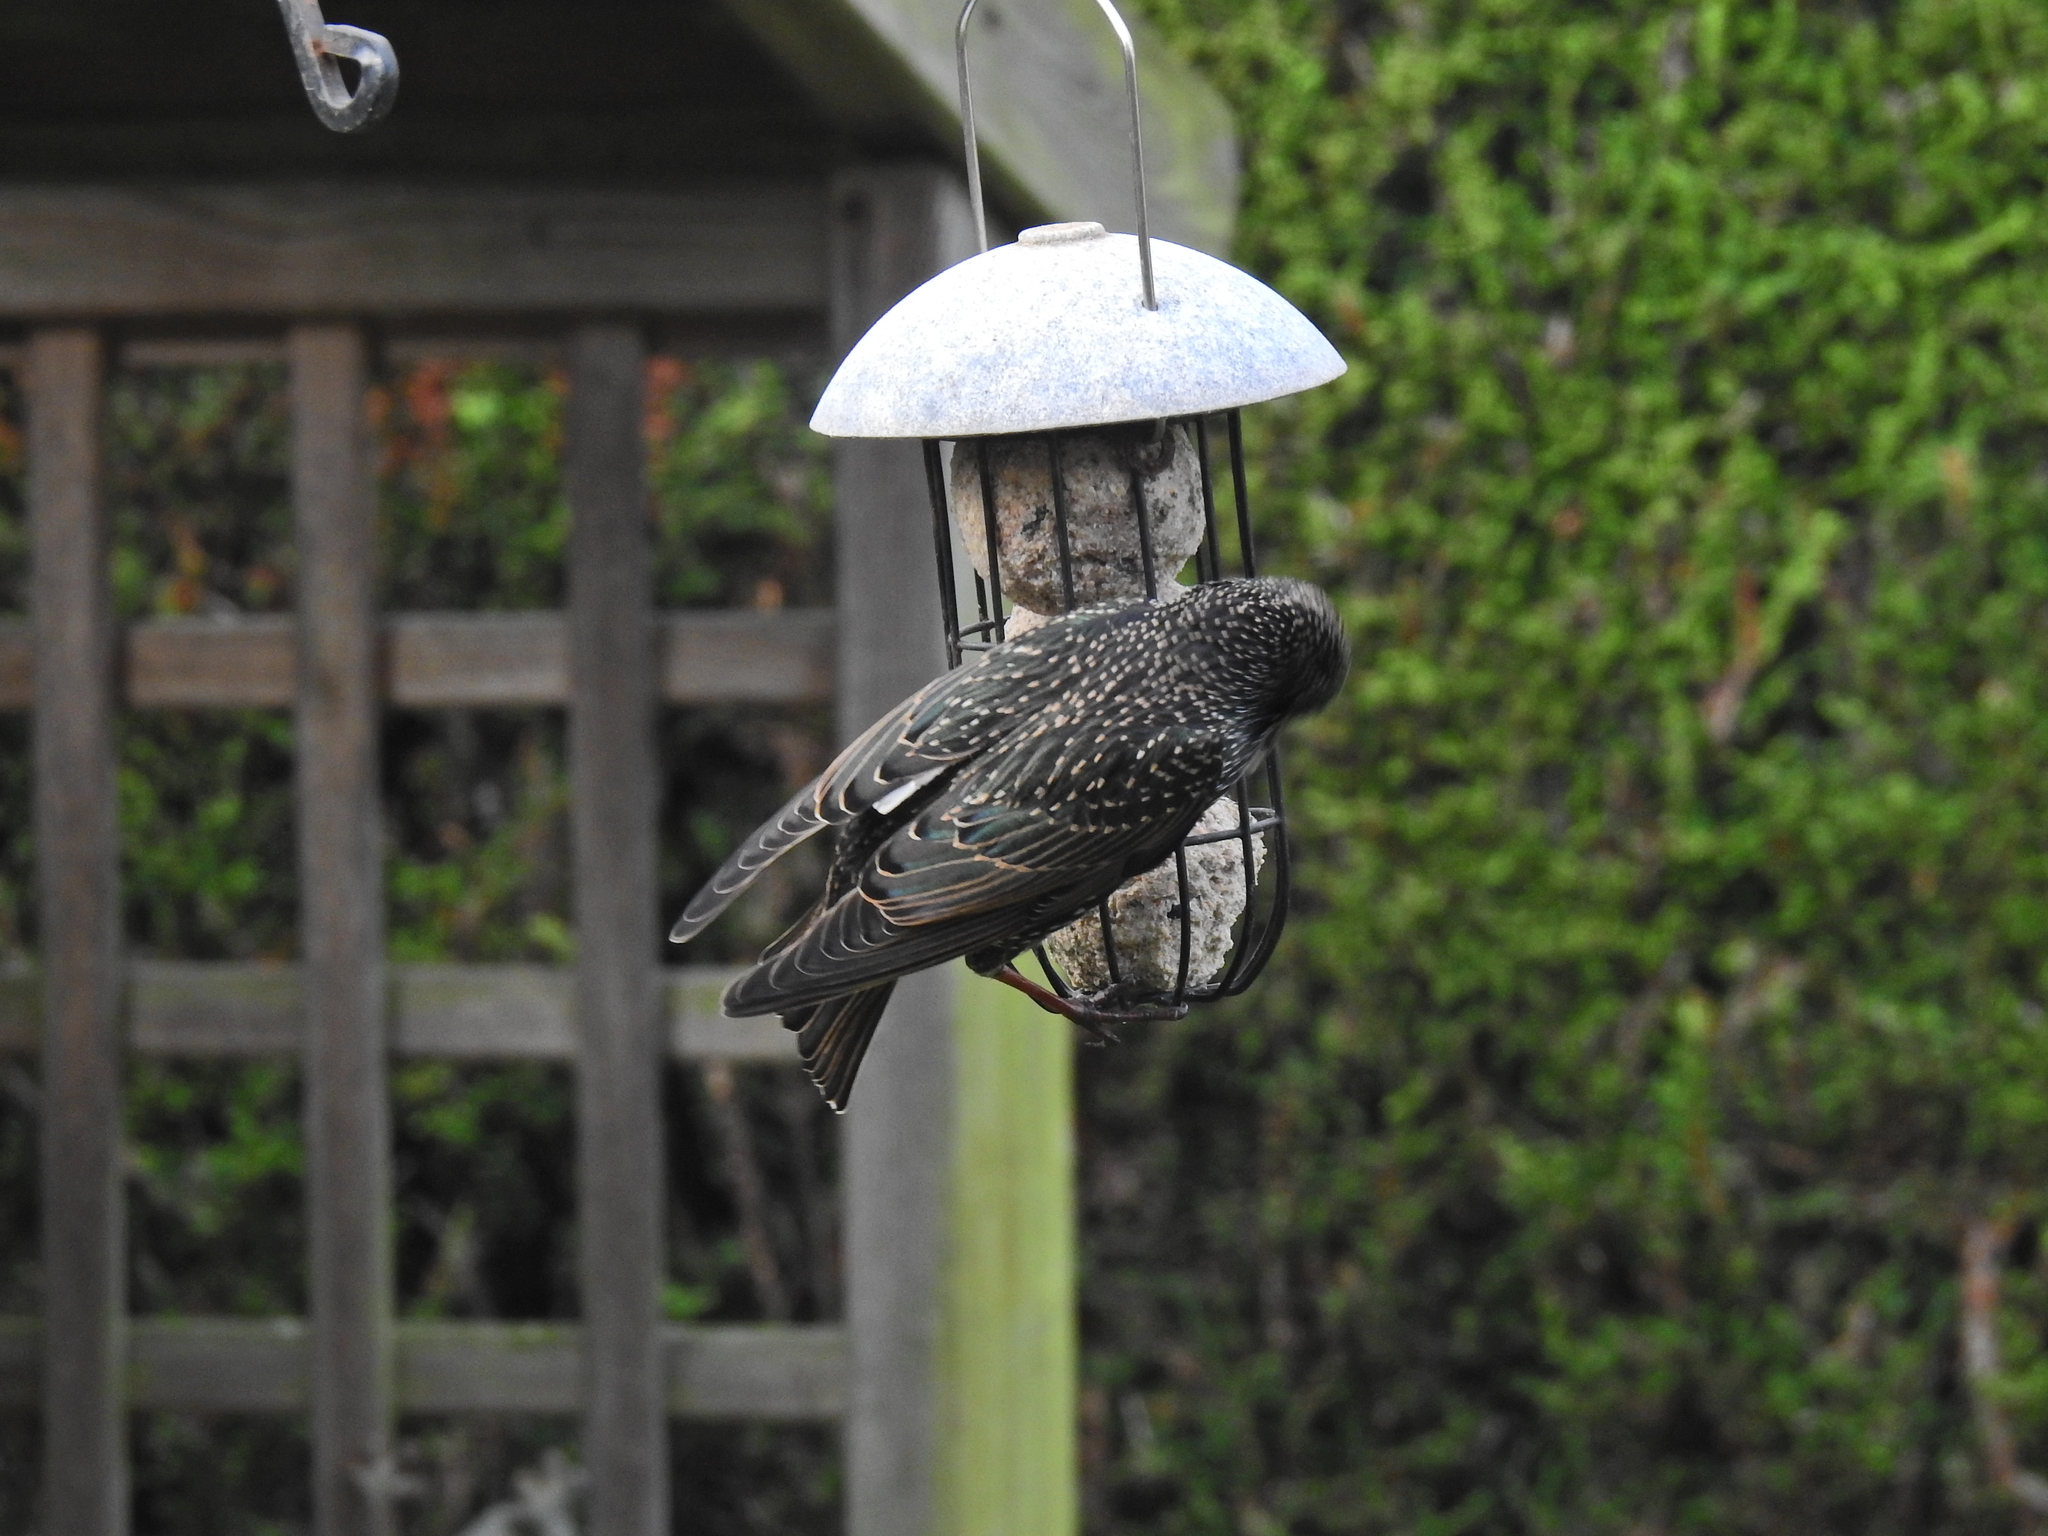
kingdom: Animalia
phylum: Chordata
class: Aves
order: Passeriformes
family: Sturnidae
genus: Sturnus
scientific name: Sturnus vulgaris
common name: Common starling
